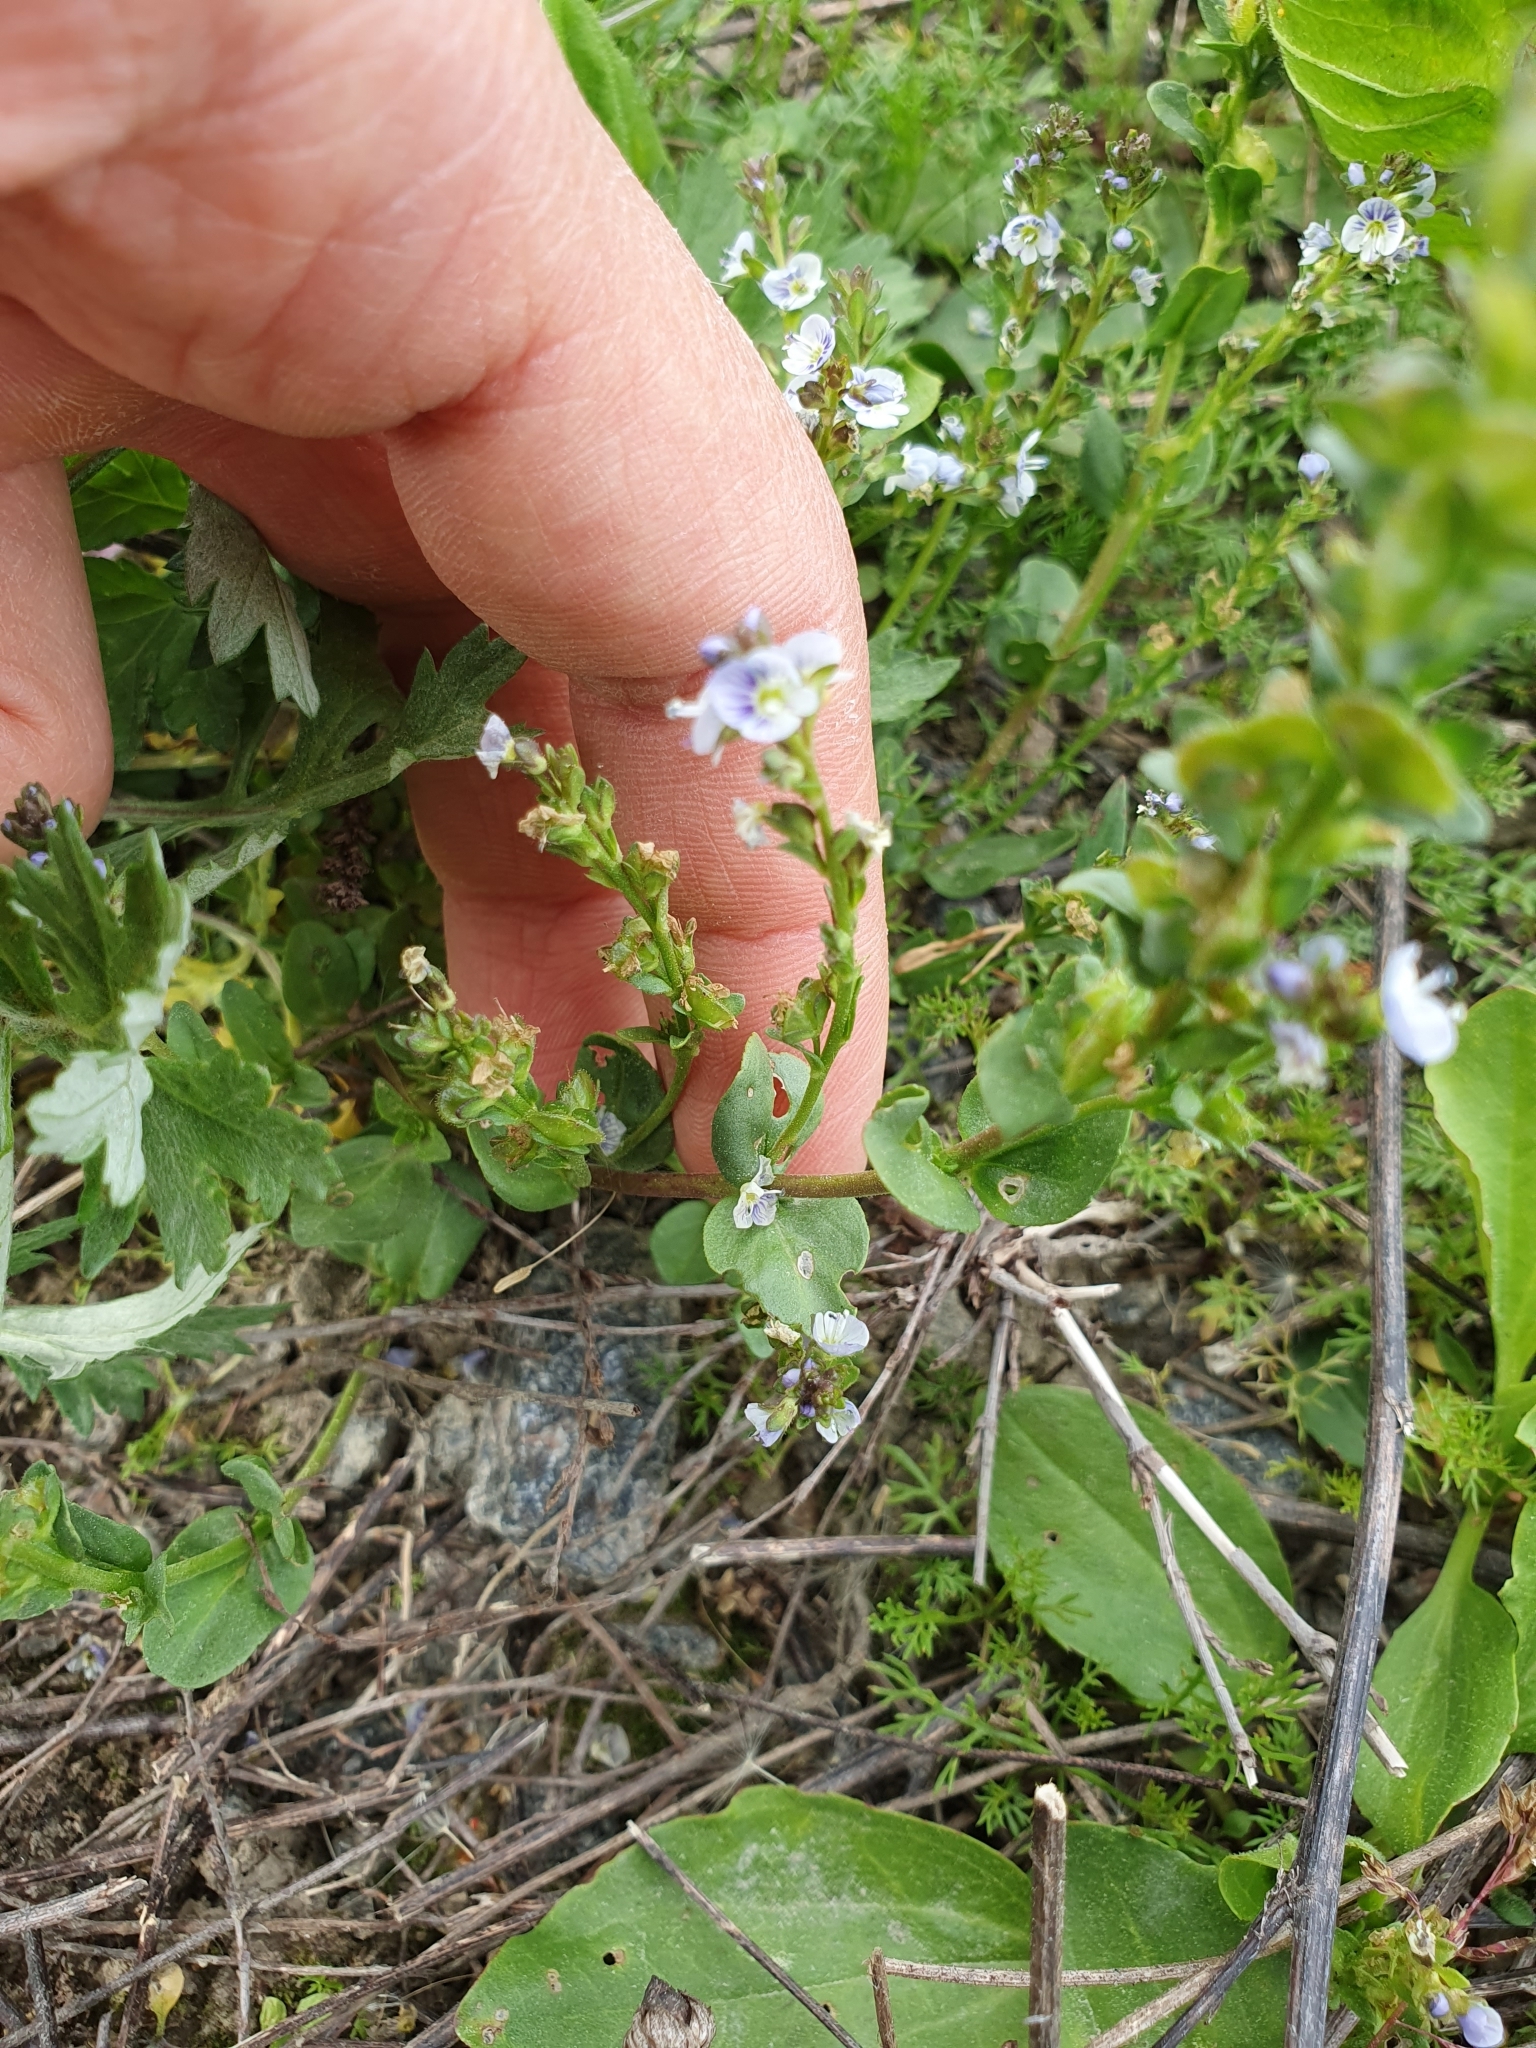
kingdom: Plantae
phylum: Tracheophyta
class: Magnoliopsida
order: Lamiales
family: Plantaginaceae
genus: Veronica
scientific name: Veronica serpyllifolia
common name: Thyme-leaved speedwell
